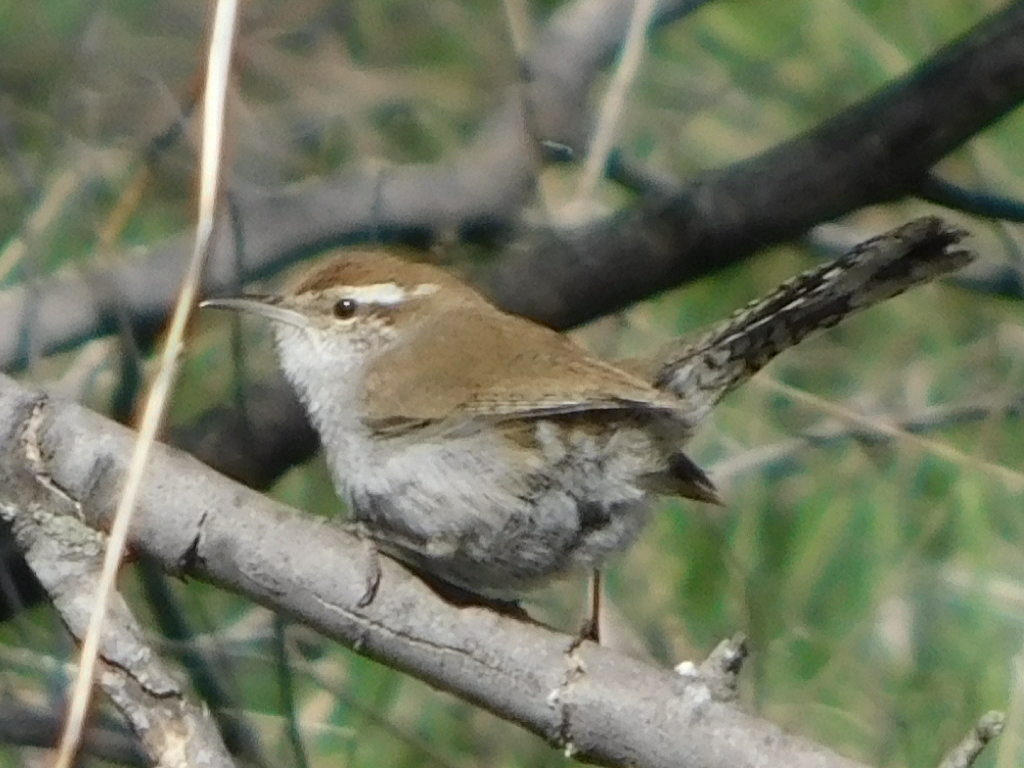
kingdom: Animalia
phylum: Chordata
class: Aves
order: Passeriformes
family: Troglodytidae
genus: Thryomanes
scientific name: Thryomanes bewickii
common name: Bewick's wren
